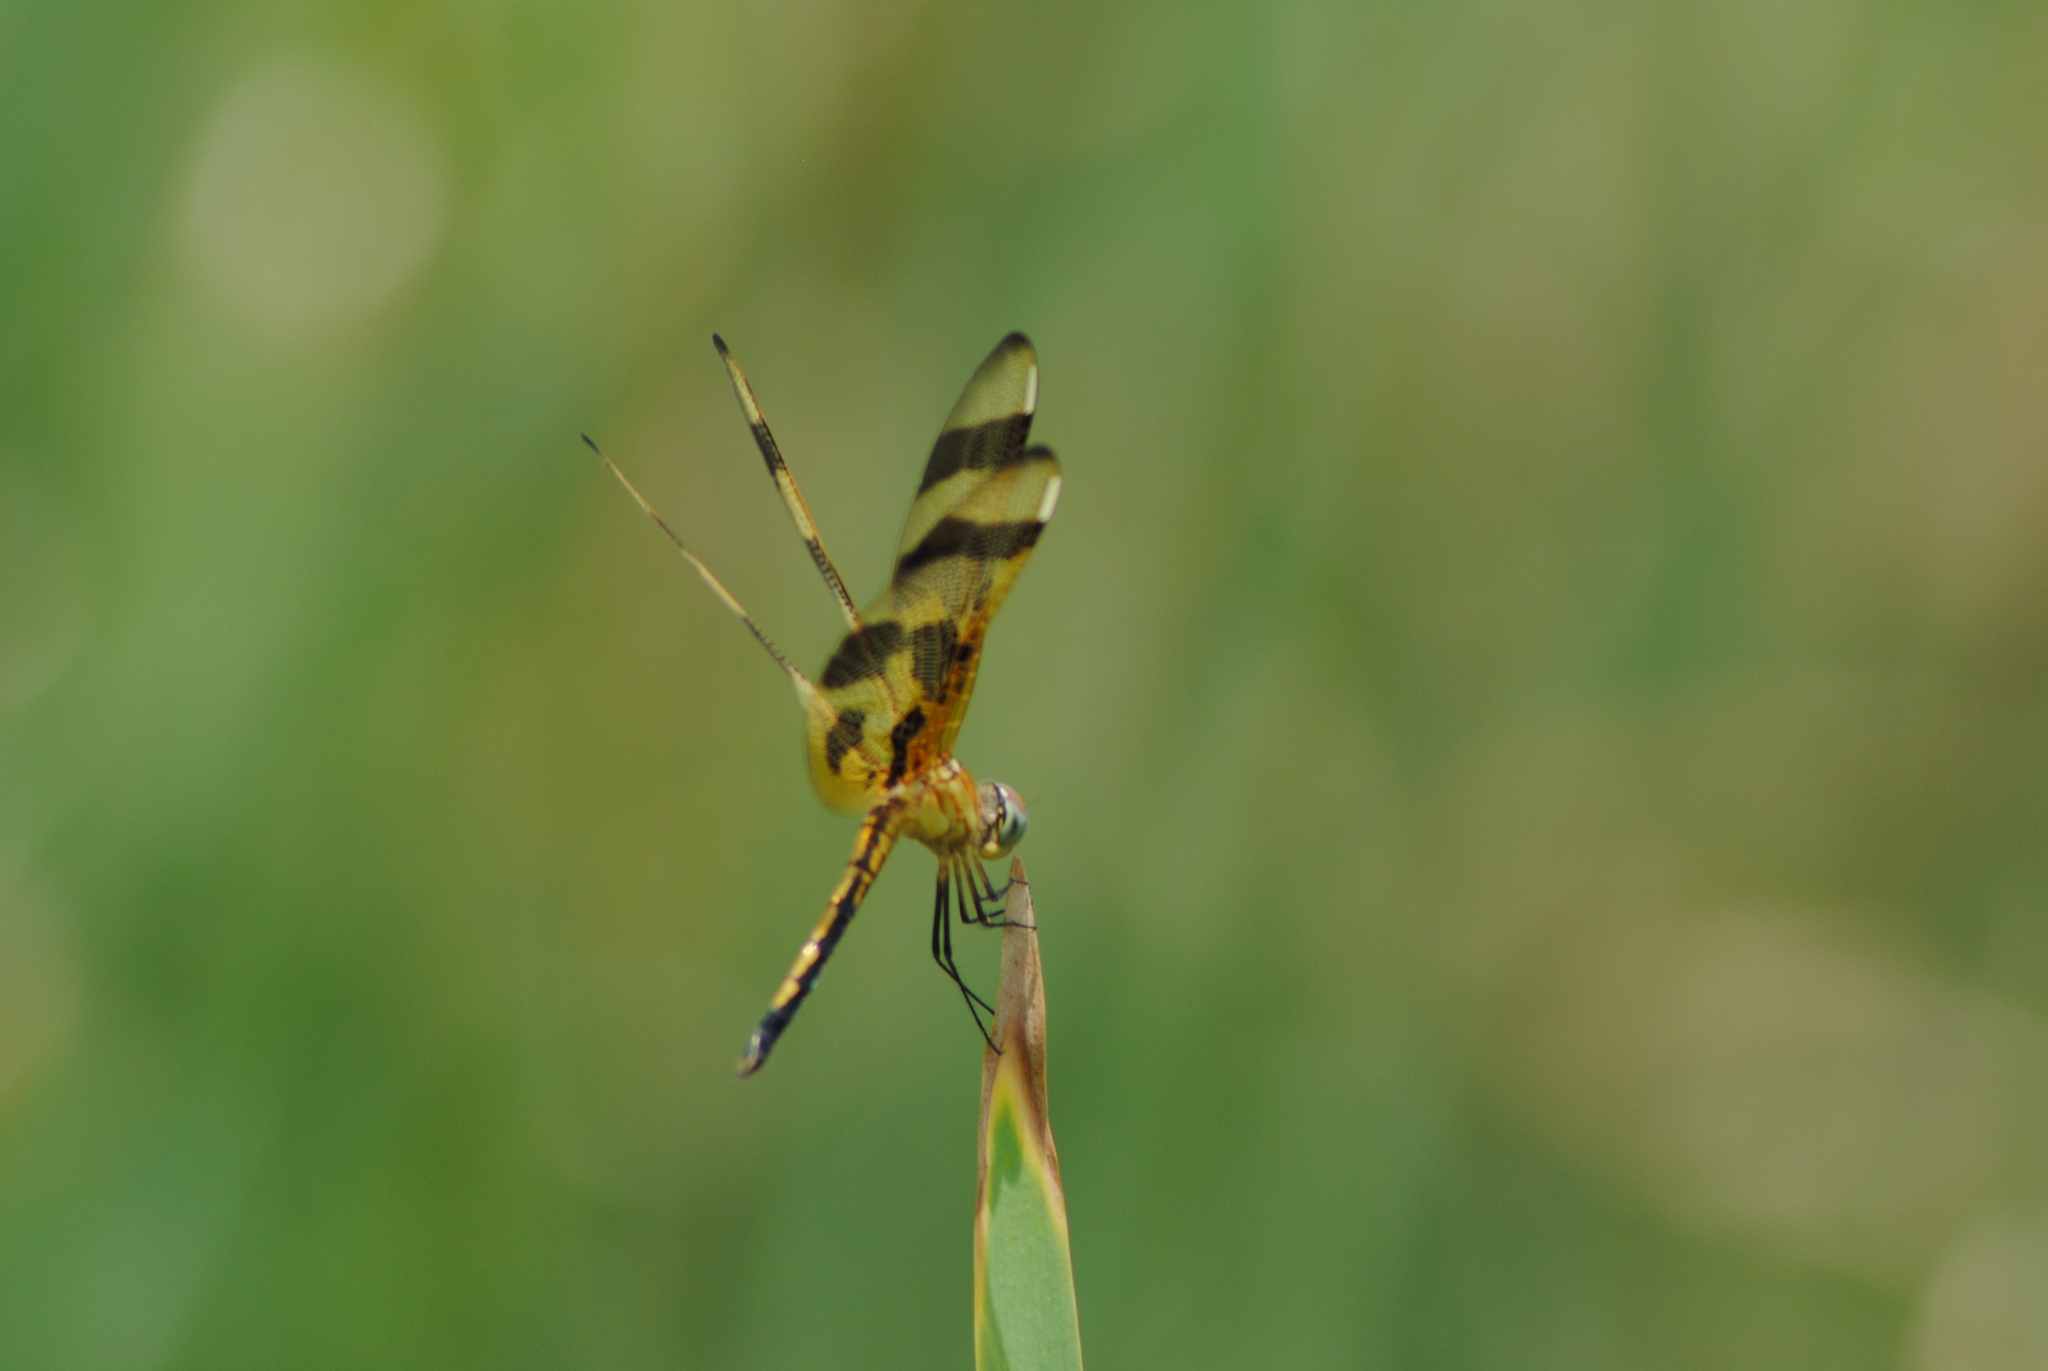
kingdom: Animalia
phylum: Arthropoda
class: Insecta
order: Odonata
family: Libellulidae
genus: Celithemis
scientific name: Celithemis eponina
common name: Halloween pennant
